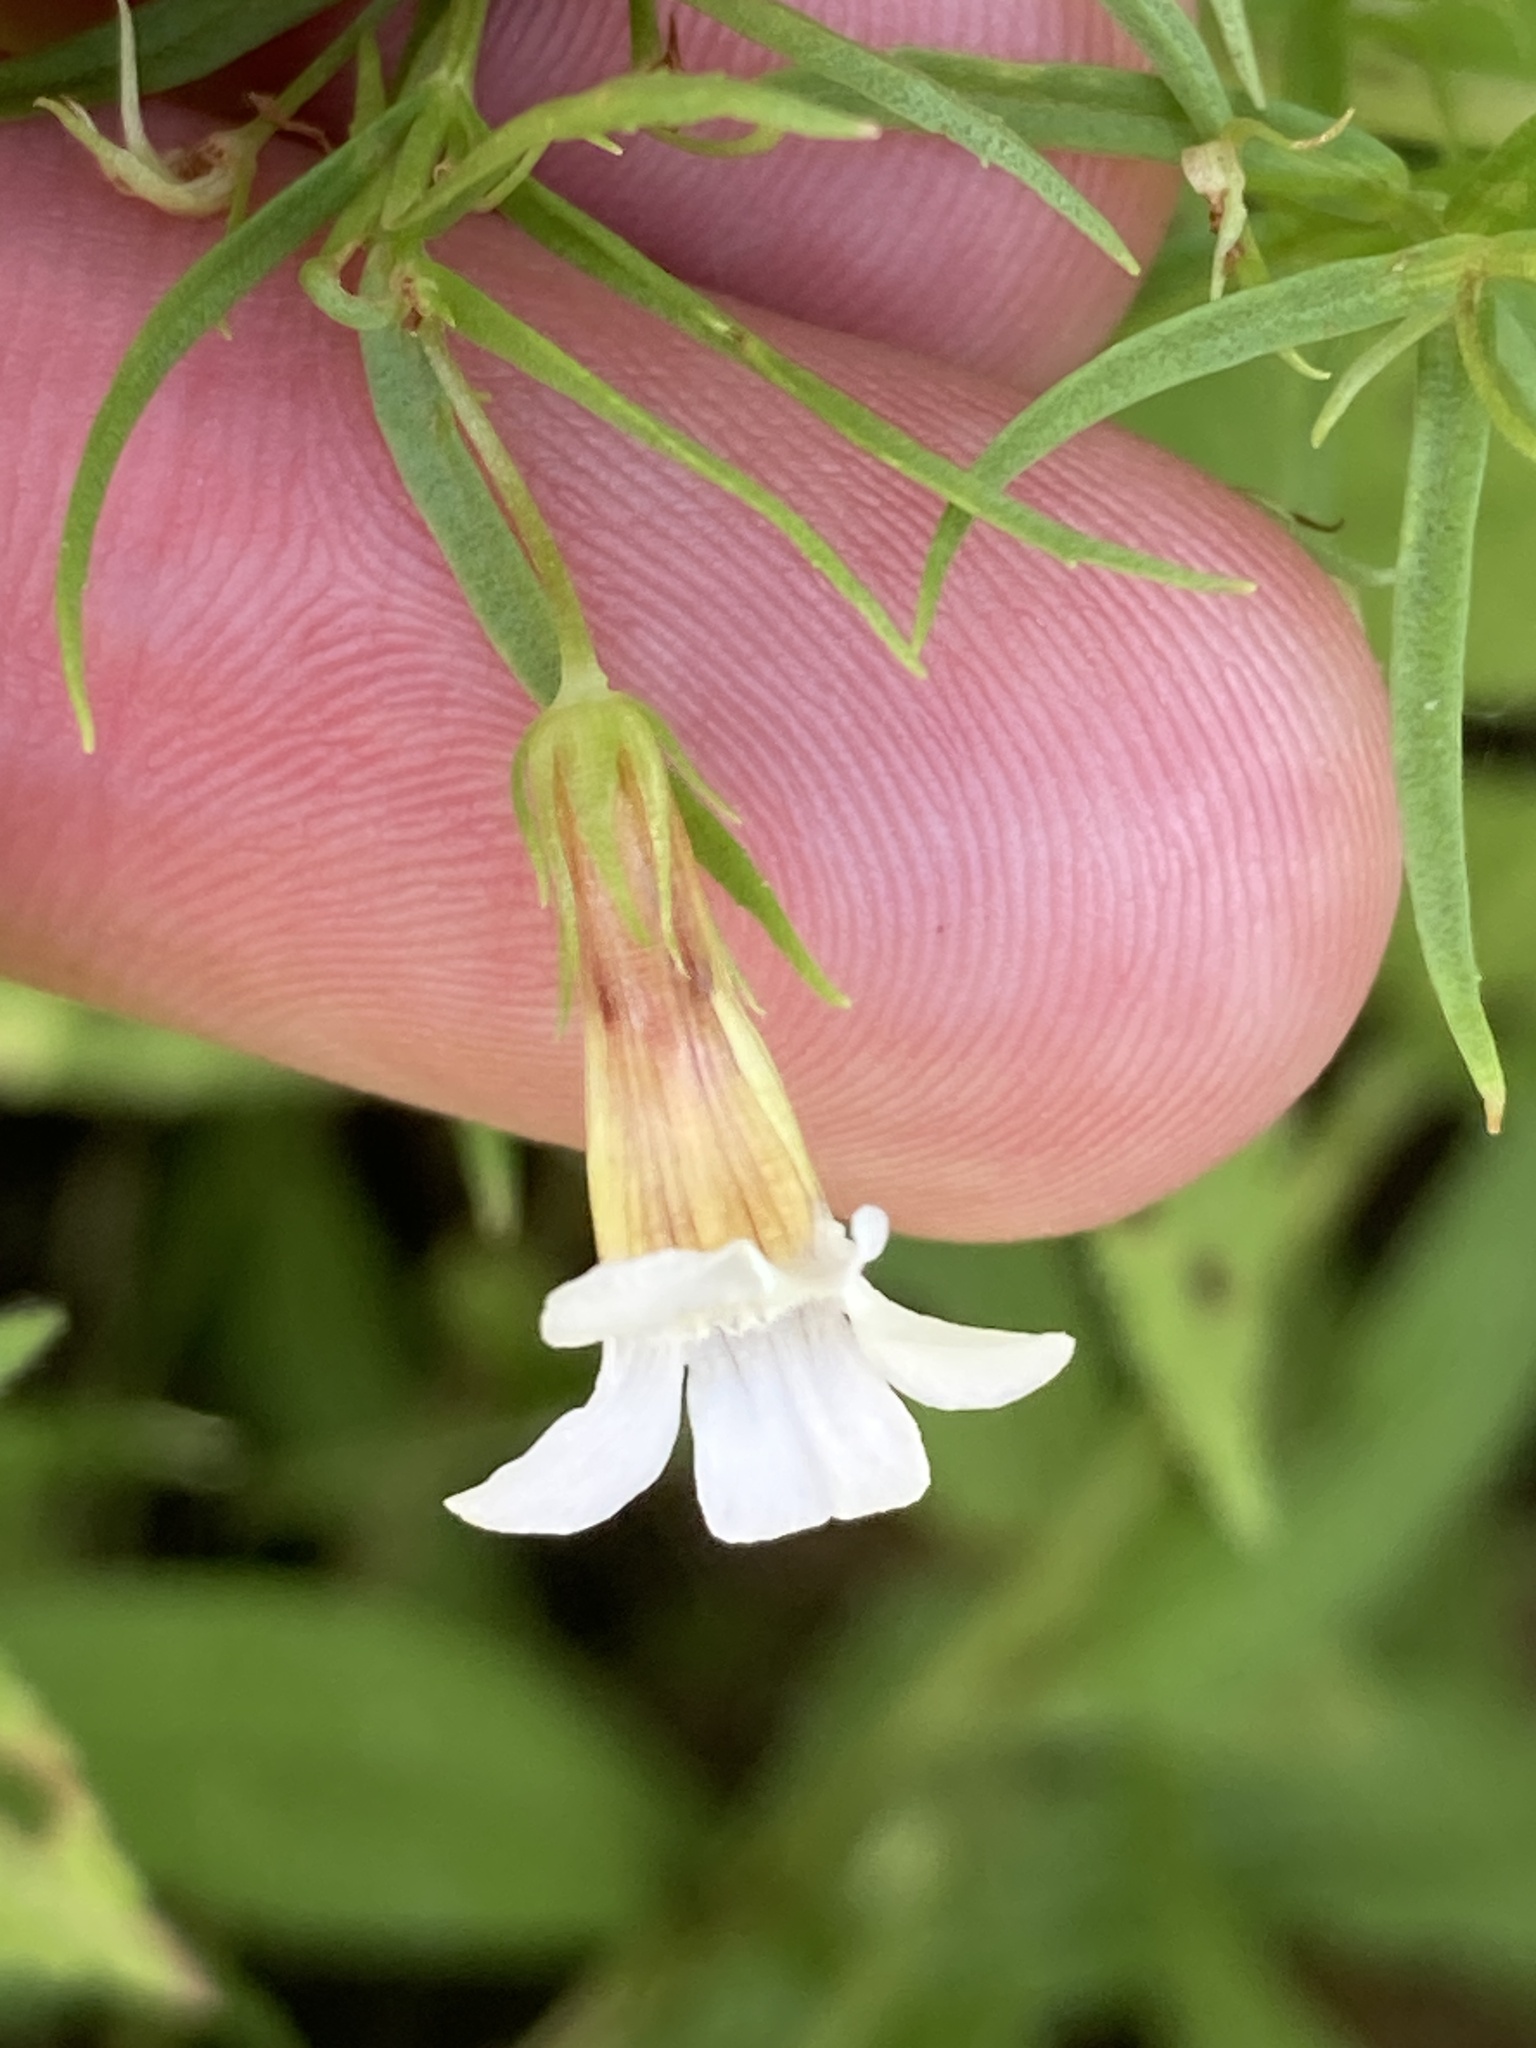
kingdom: Plantae
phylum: Tracheophyta
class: Magnoliopsida
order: Lamiales
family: Plantaginaceae
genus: Gratiola
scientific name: Gratiola officinalis
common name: Gratiola
